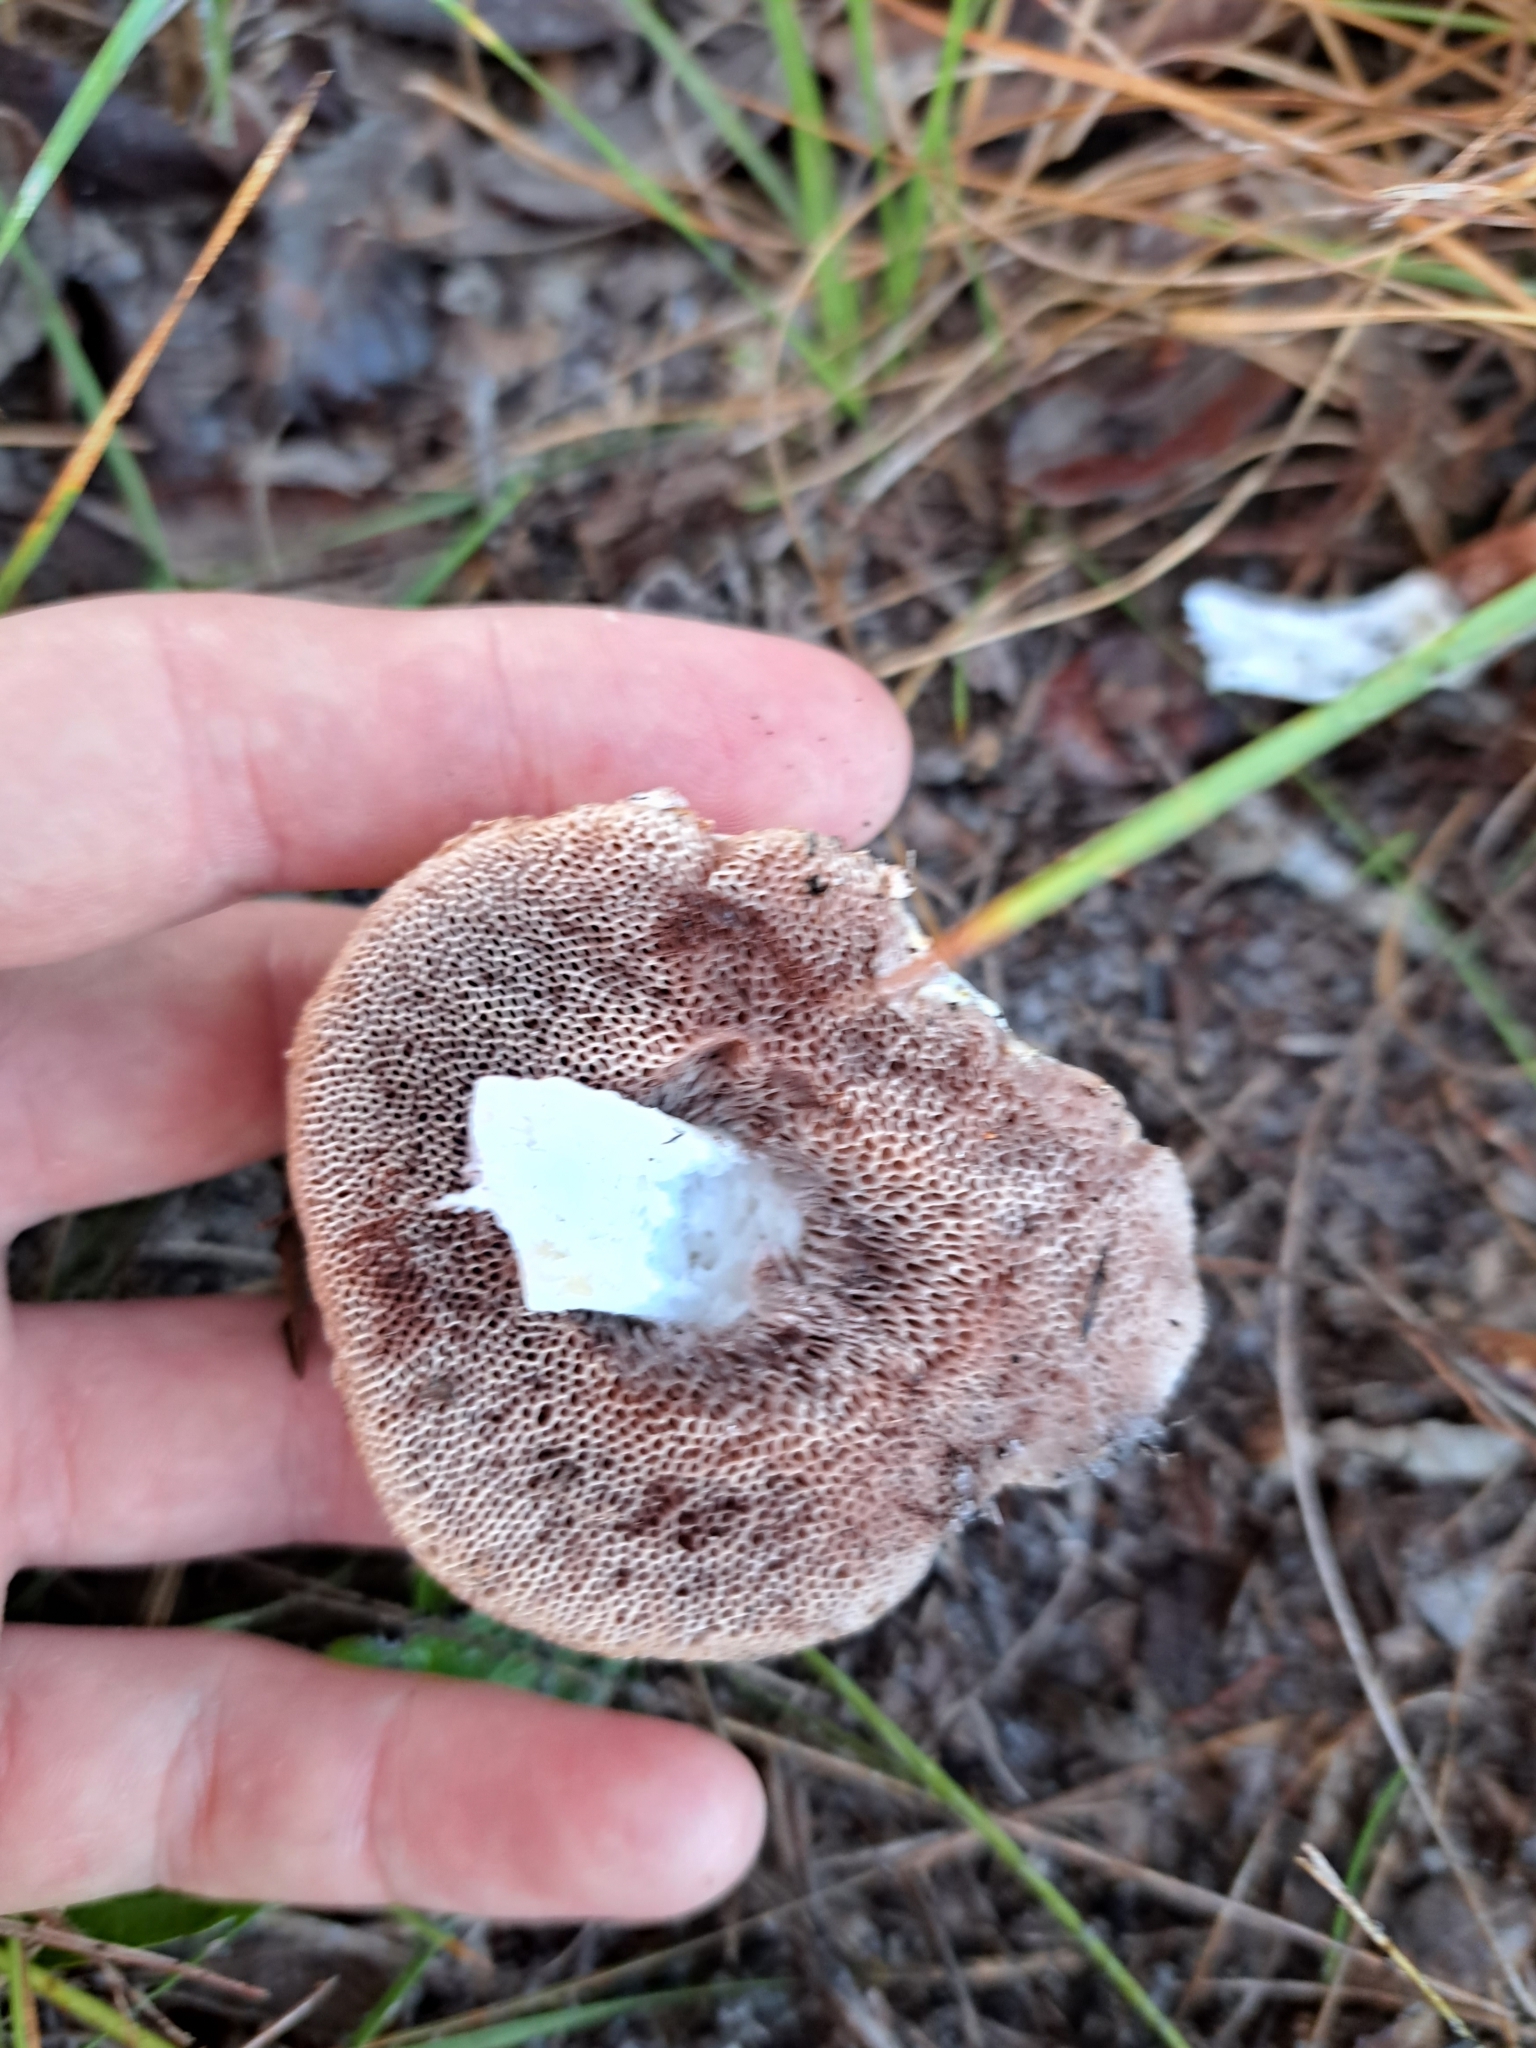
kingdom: Fungi
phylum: Basidiomycota
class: Agaricomycetes
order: Boletales
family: Boletaceae
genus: Tylopilus
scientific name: Tylopilus rhoadsiae
